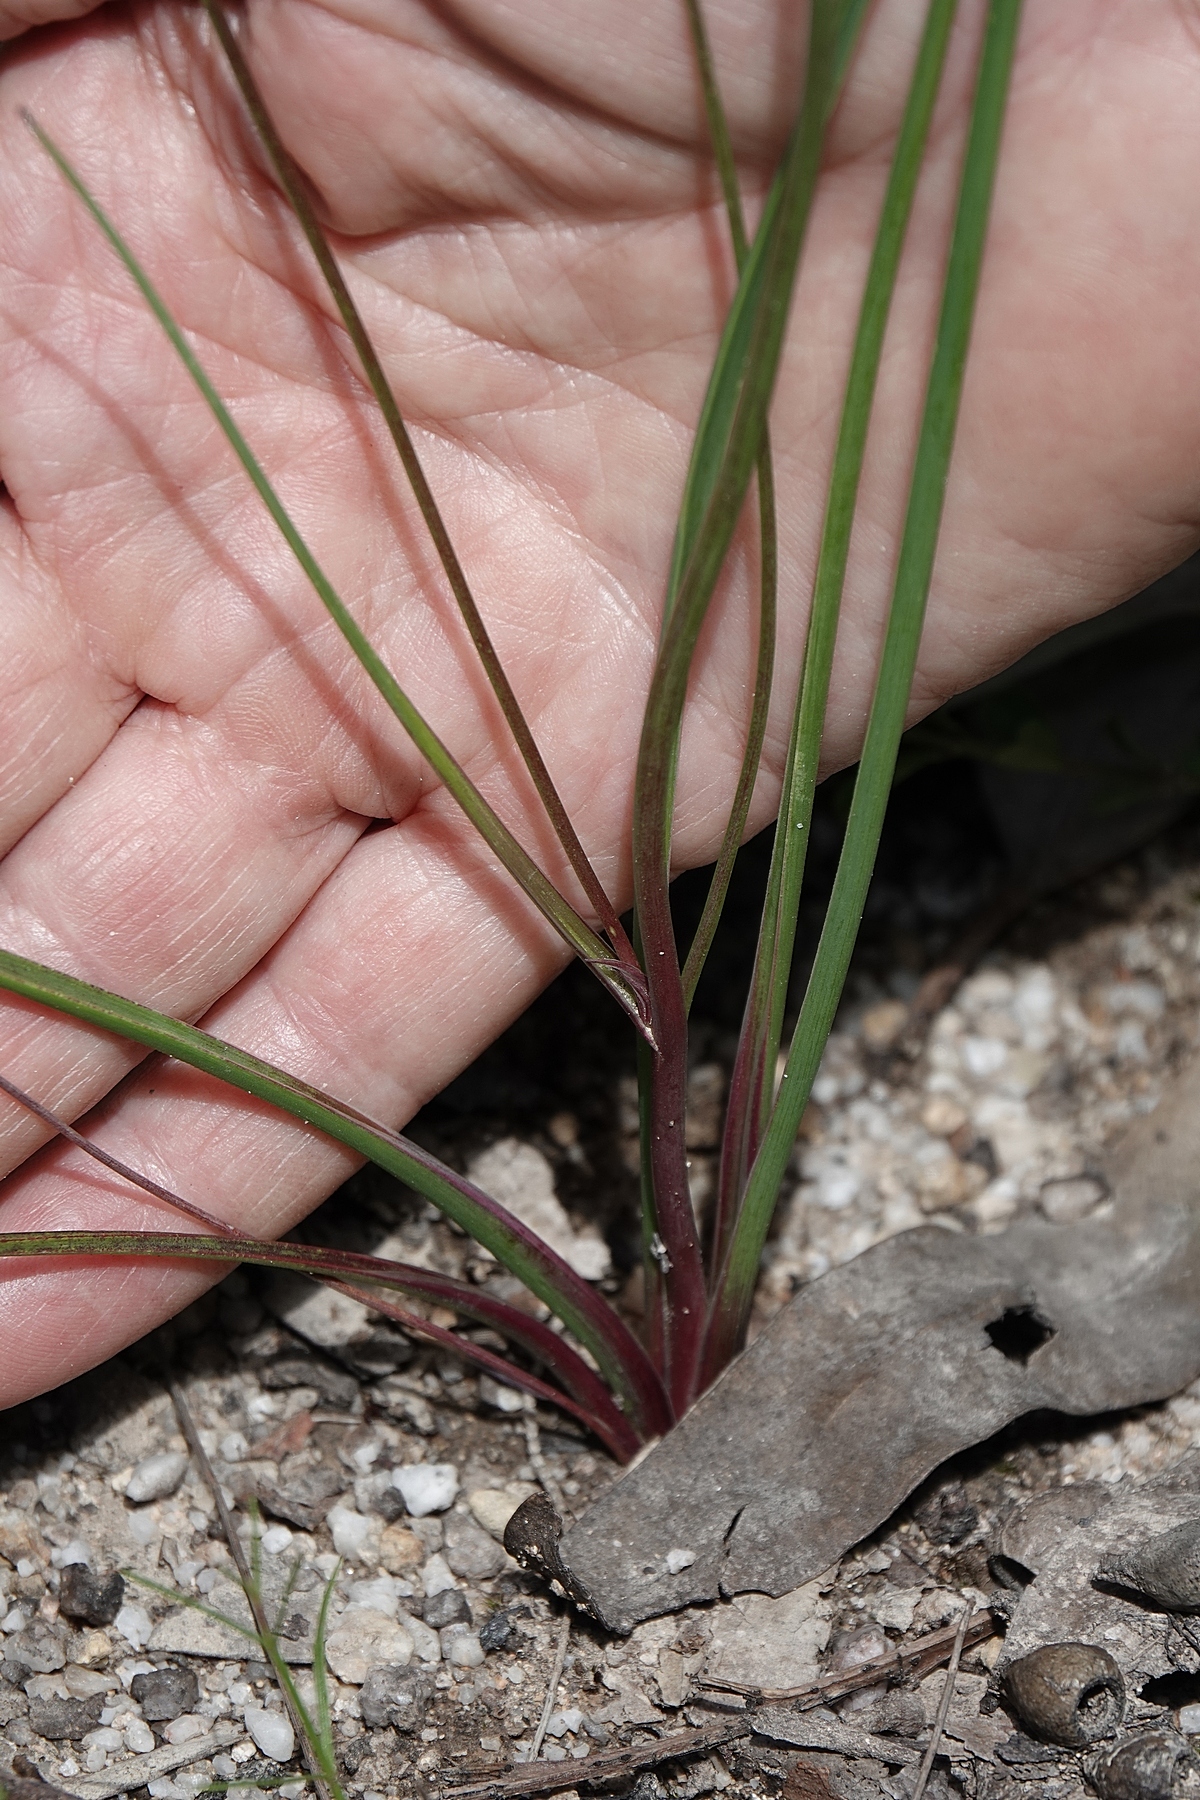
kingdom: Plantae
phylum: Tracheophyta
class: Liliopsida
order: Asparagales
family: Asparagaceae
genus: Thysanotus
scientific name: Thysanotus tuberosus
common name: Common fringed-lily
